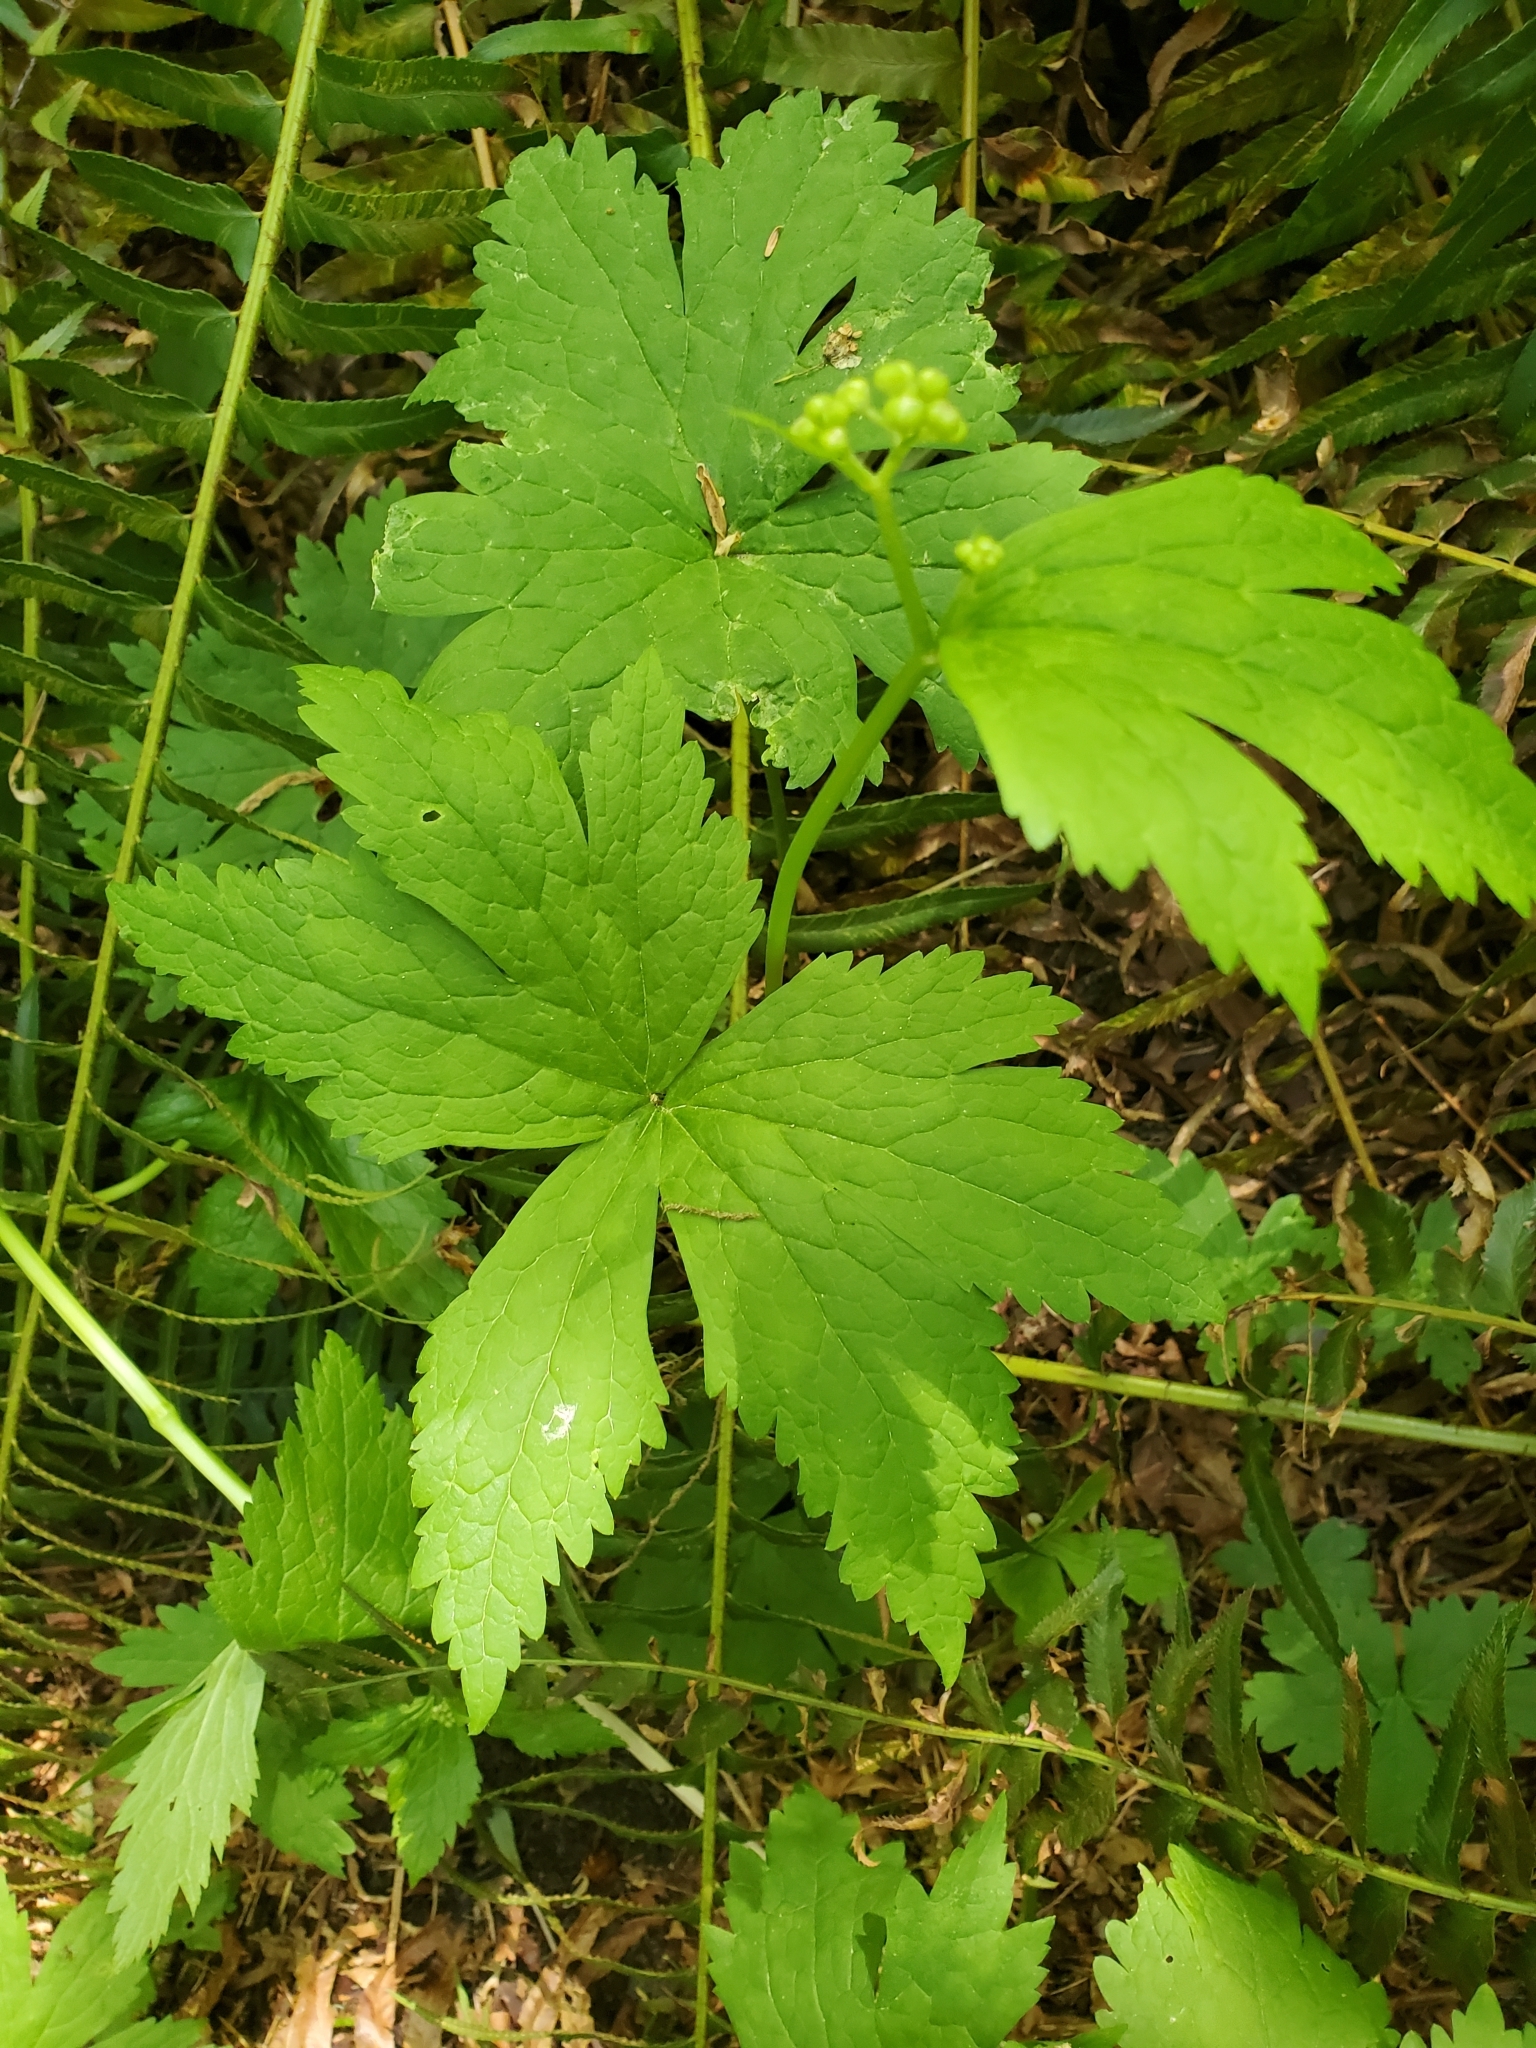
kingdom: Plantae
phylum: Tracheophyta
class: Magnoliopsida
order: Ranunculales
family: Ranunculaceae
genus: Trautvetteria
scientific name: Trautvetteria carolinensis
